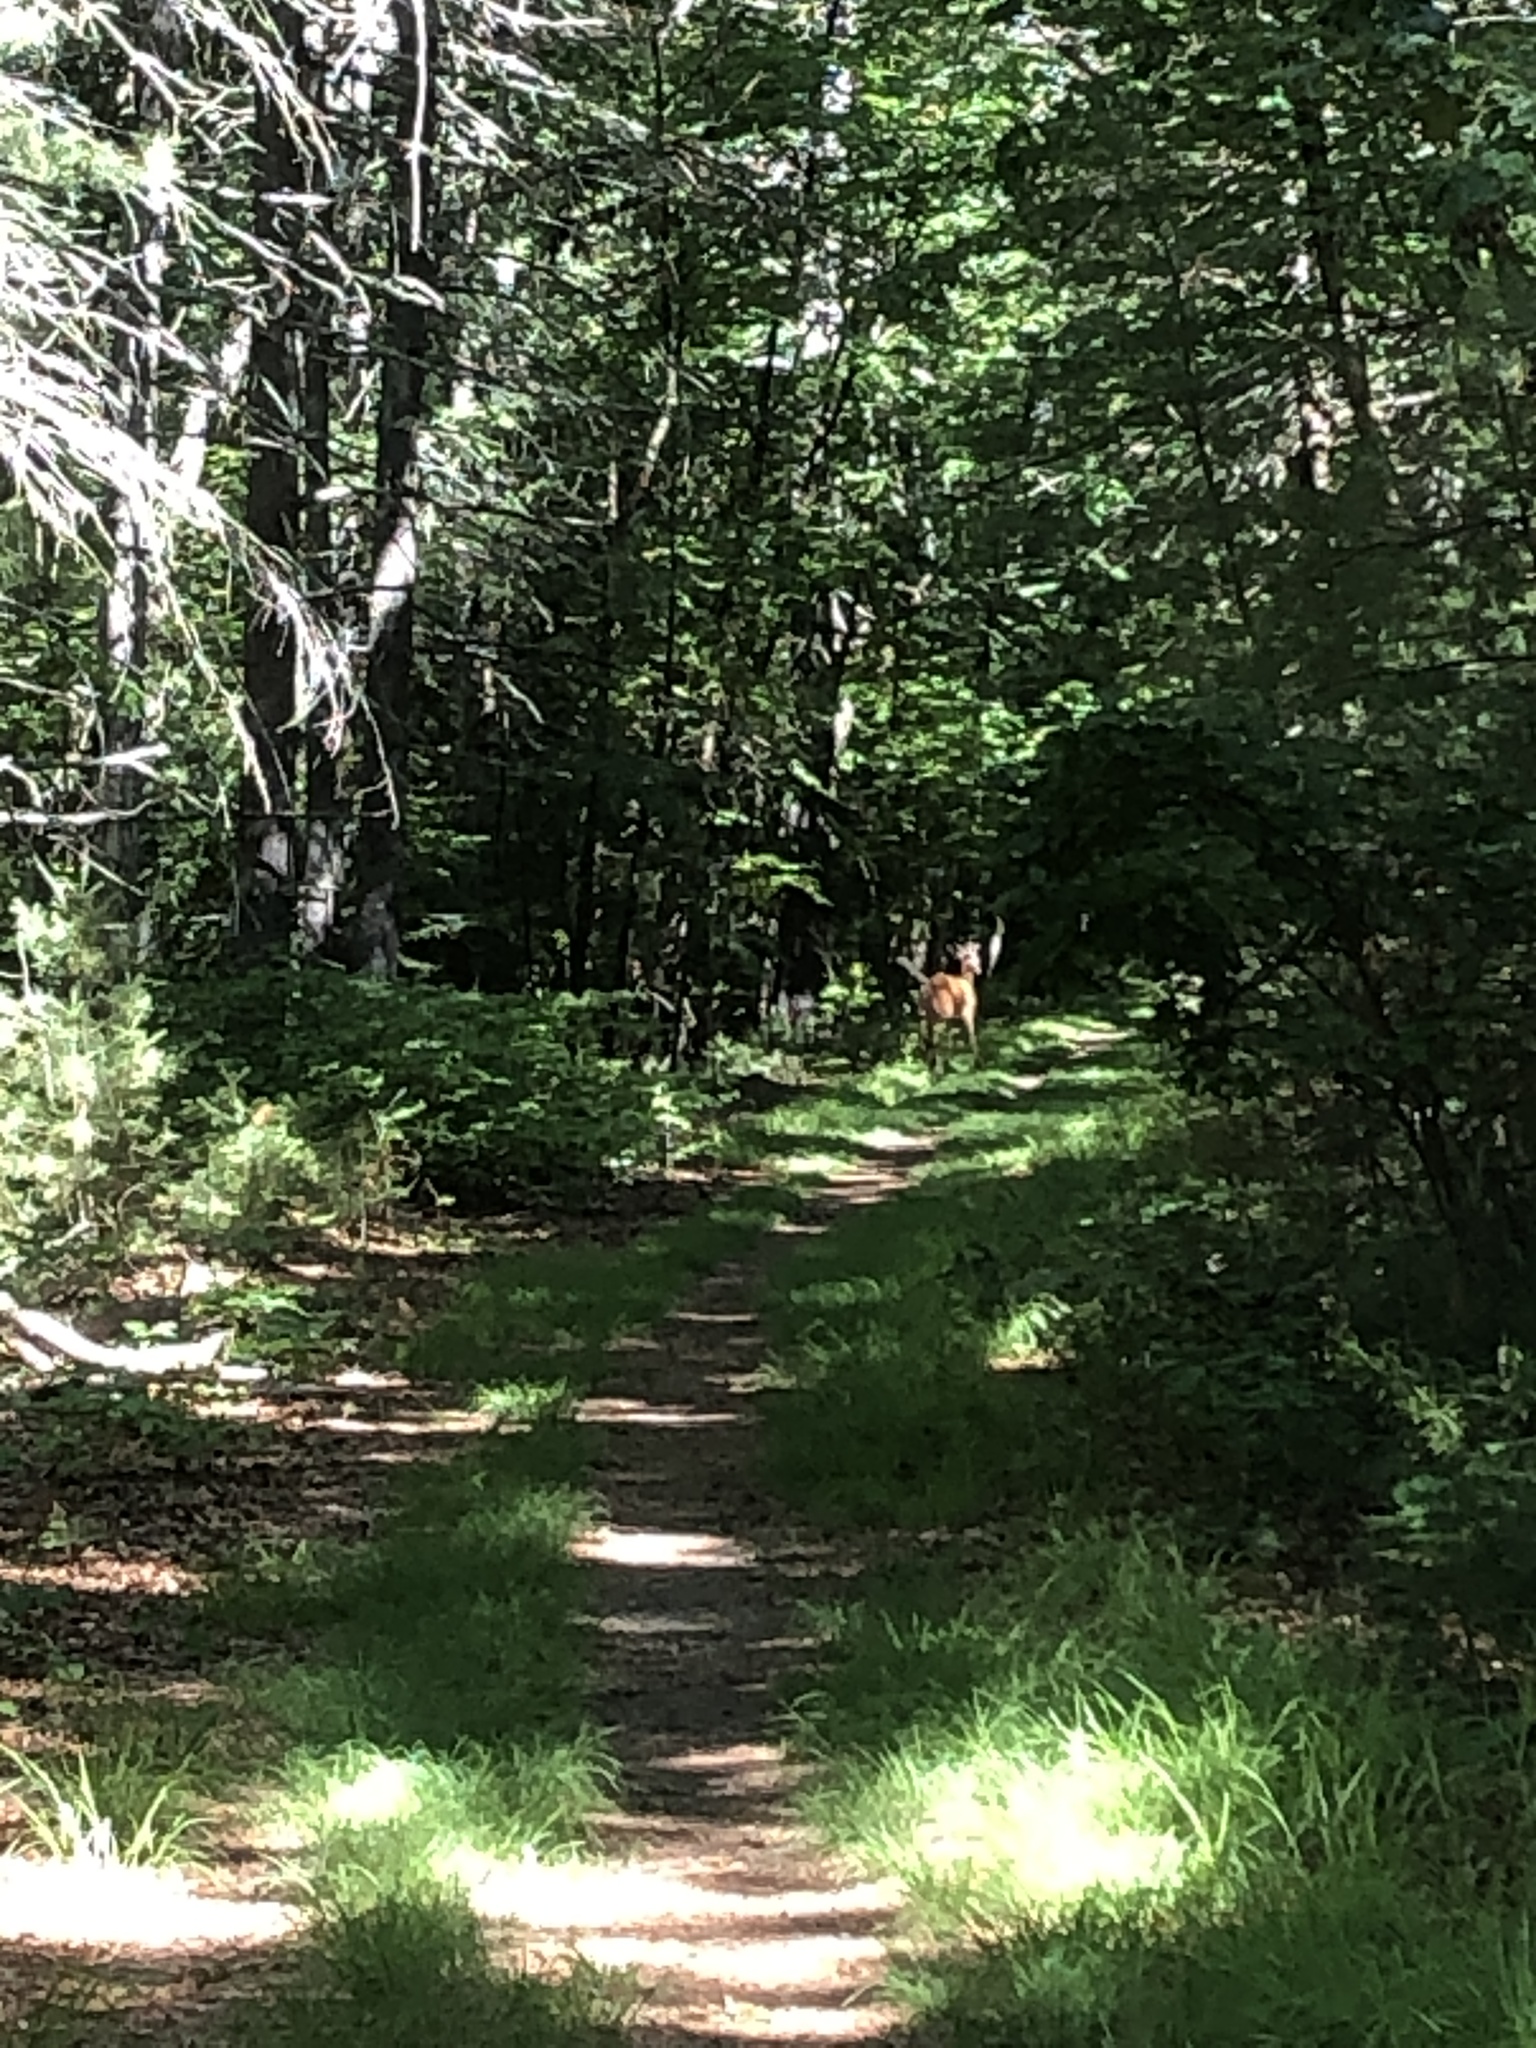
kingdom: Animalia
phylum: Chordata
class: Mammalia
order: Artiodactyla
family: Cervidae
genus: Odocoileus
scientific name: Odocoileus virginianus
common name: White-tailed deer
